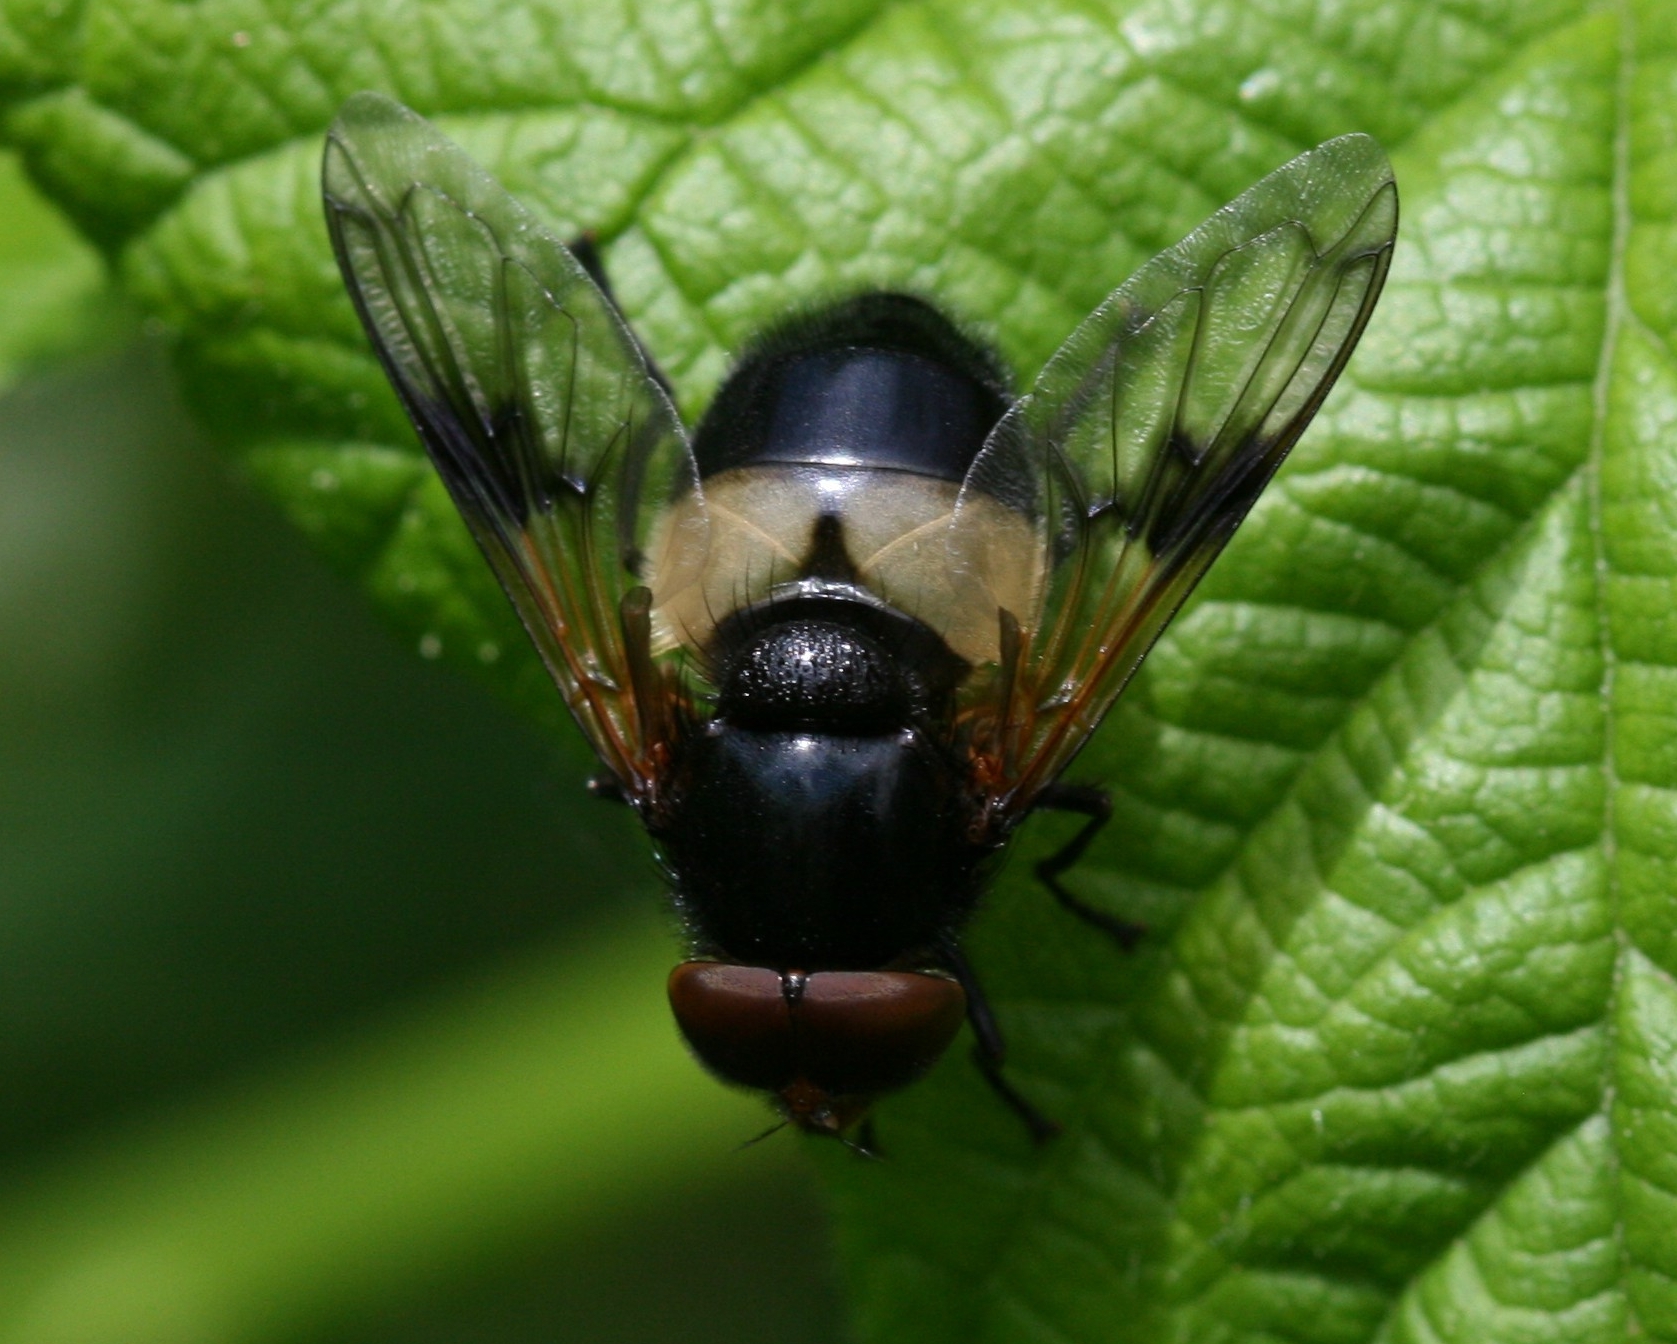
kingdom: Animalia
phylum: Arthropoda
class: Insecta
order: Diptera
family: Syrphidae
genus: Volucella
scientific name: Volucella pellucens
